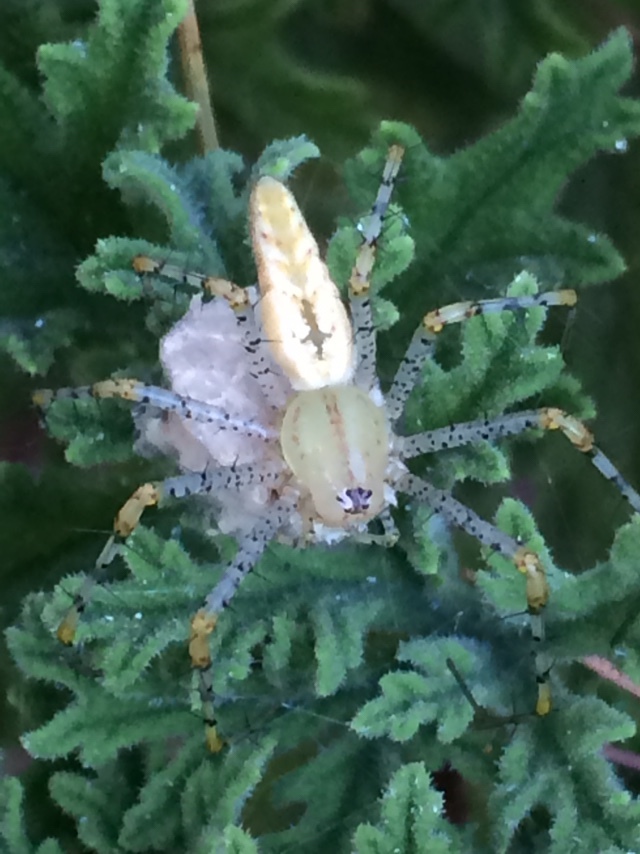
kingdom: Animalia
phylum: Arthropoda
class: Arachnida
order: Araneae
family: Oxyopidae
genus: Peucetia
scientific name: Peucetia viridans
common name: Lynx spiders
